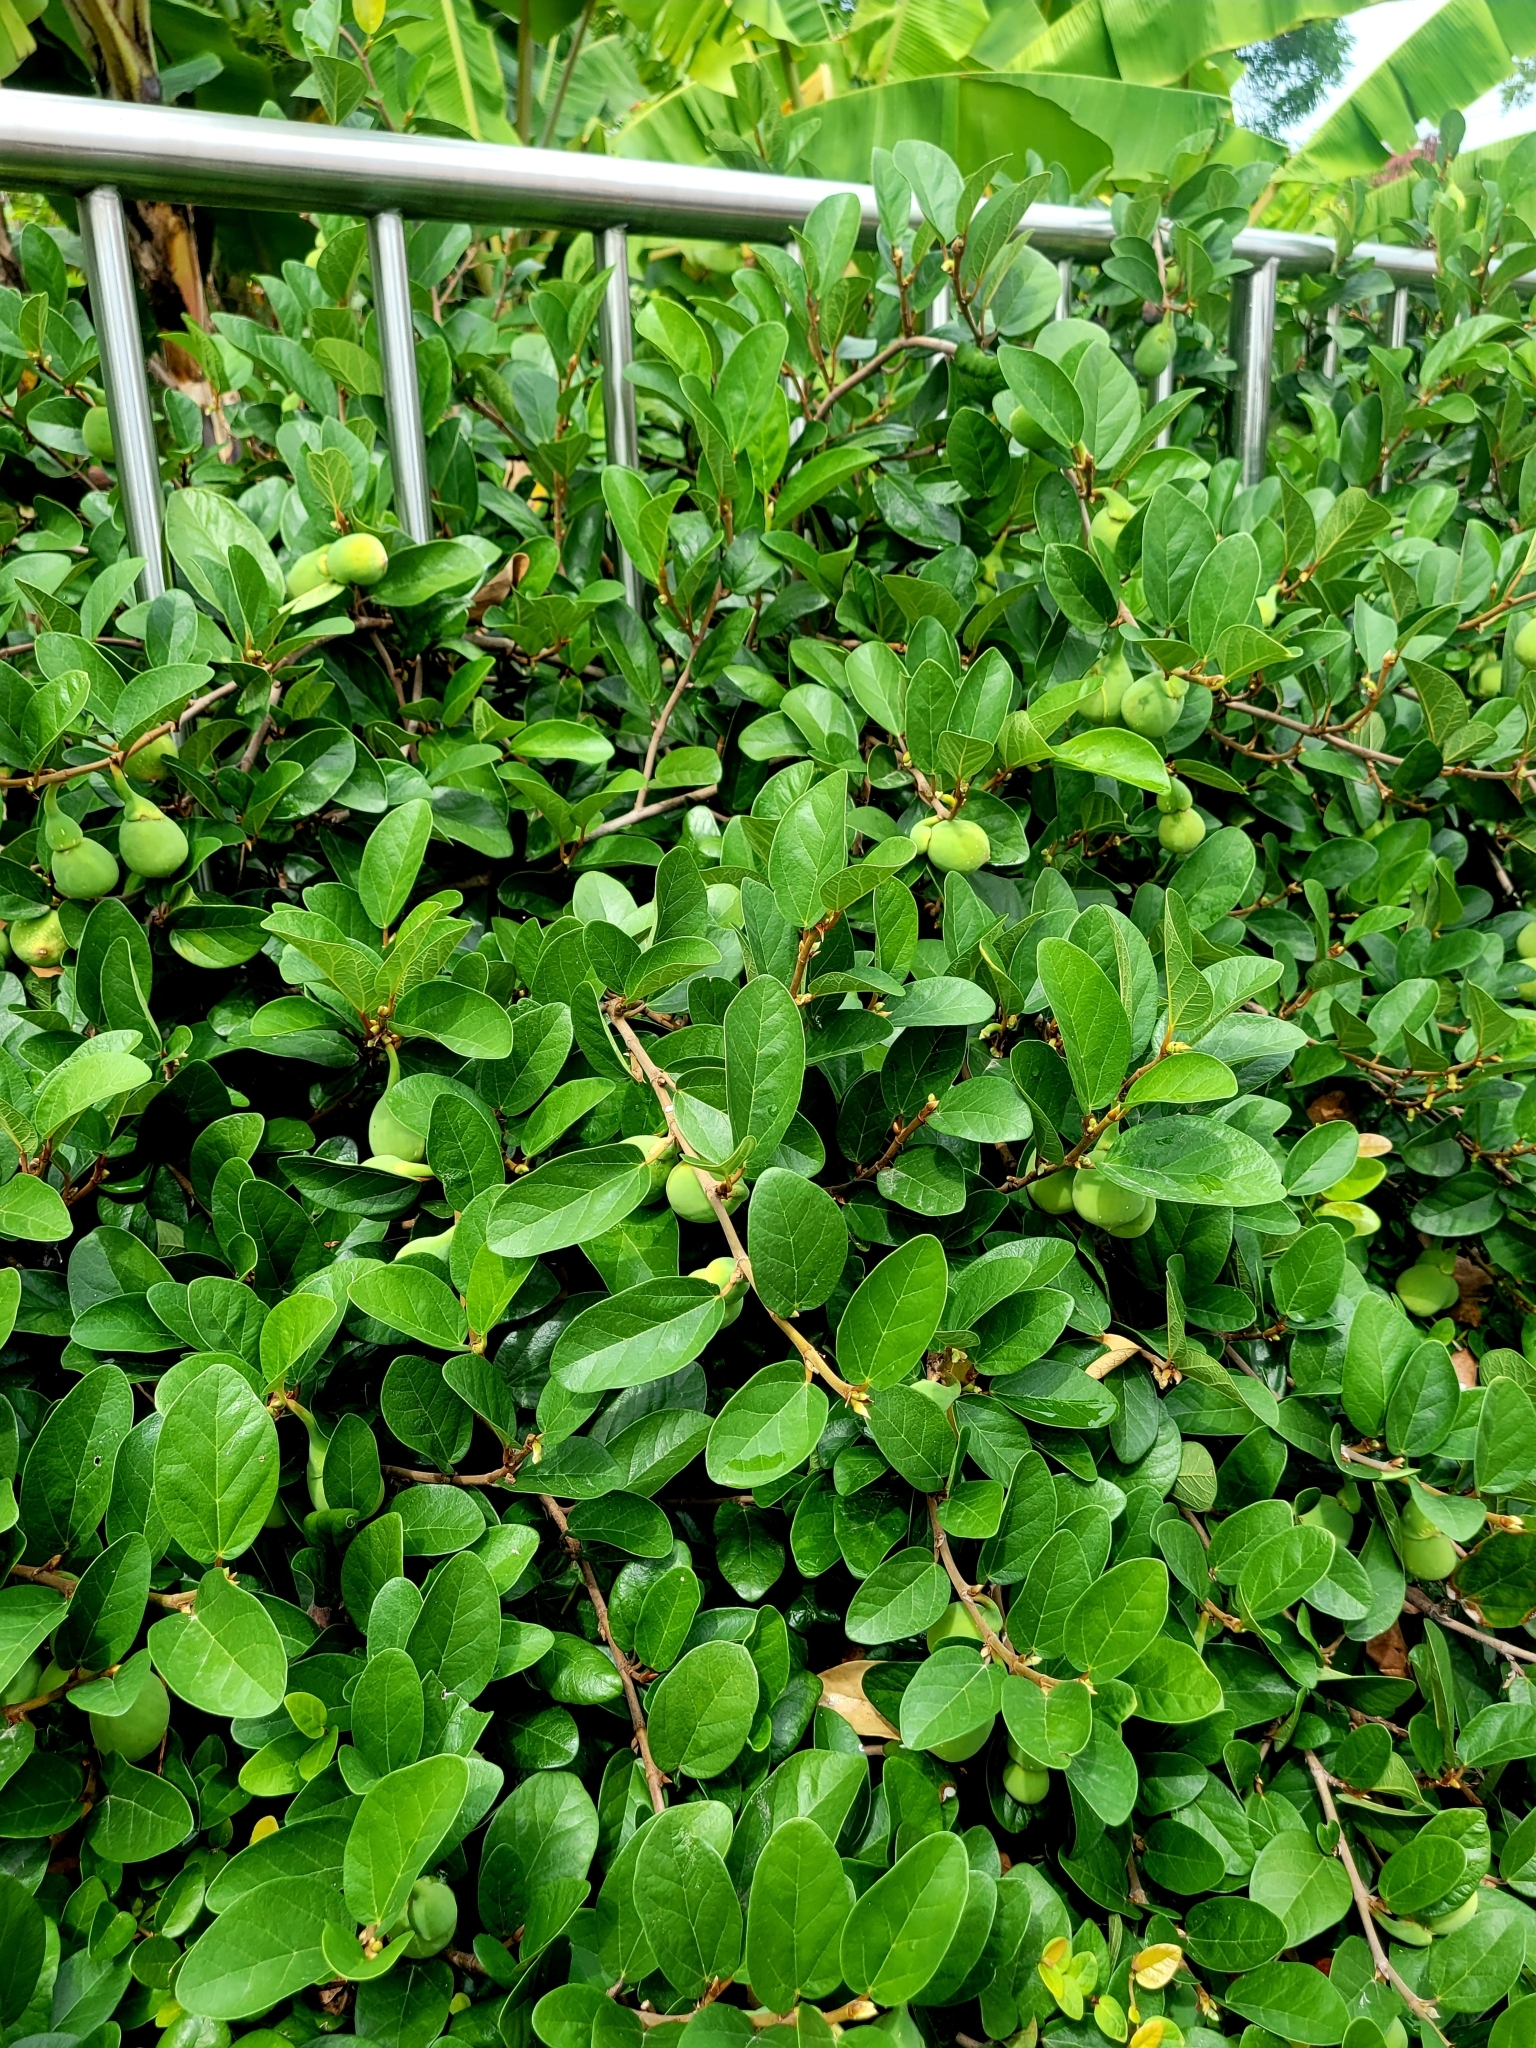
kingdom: Plantae
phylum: Tracheophyta
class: Magnoliopsida
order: Rosales
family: Moraceae
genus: Ficus
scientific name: Ficus pumila
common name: Climbingfig
